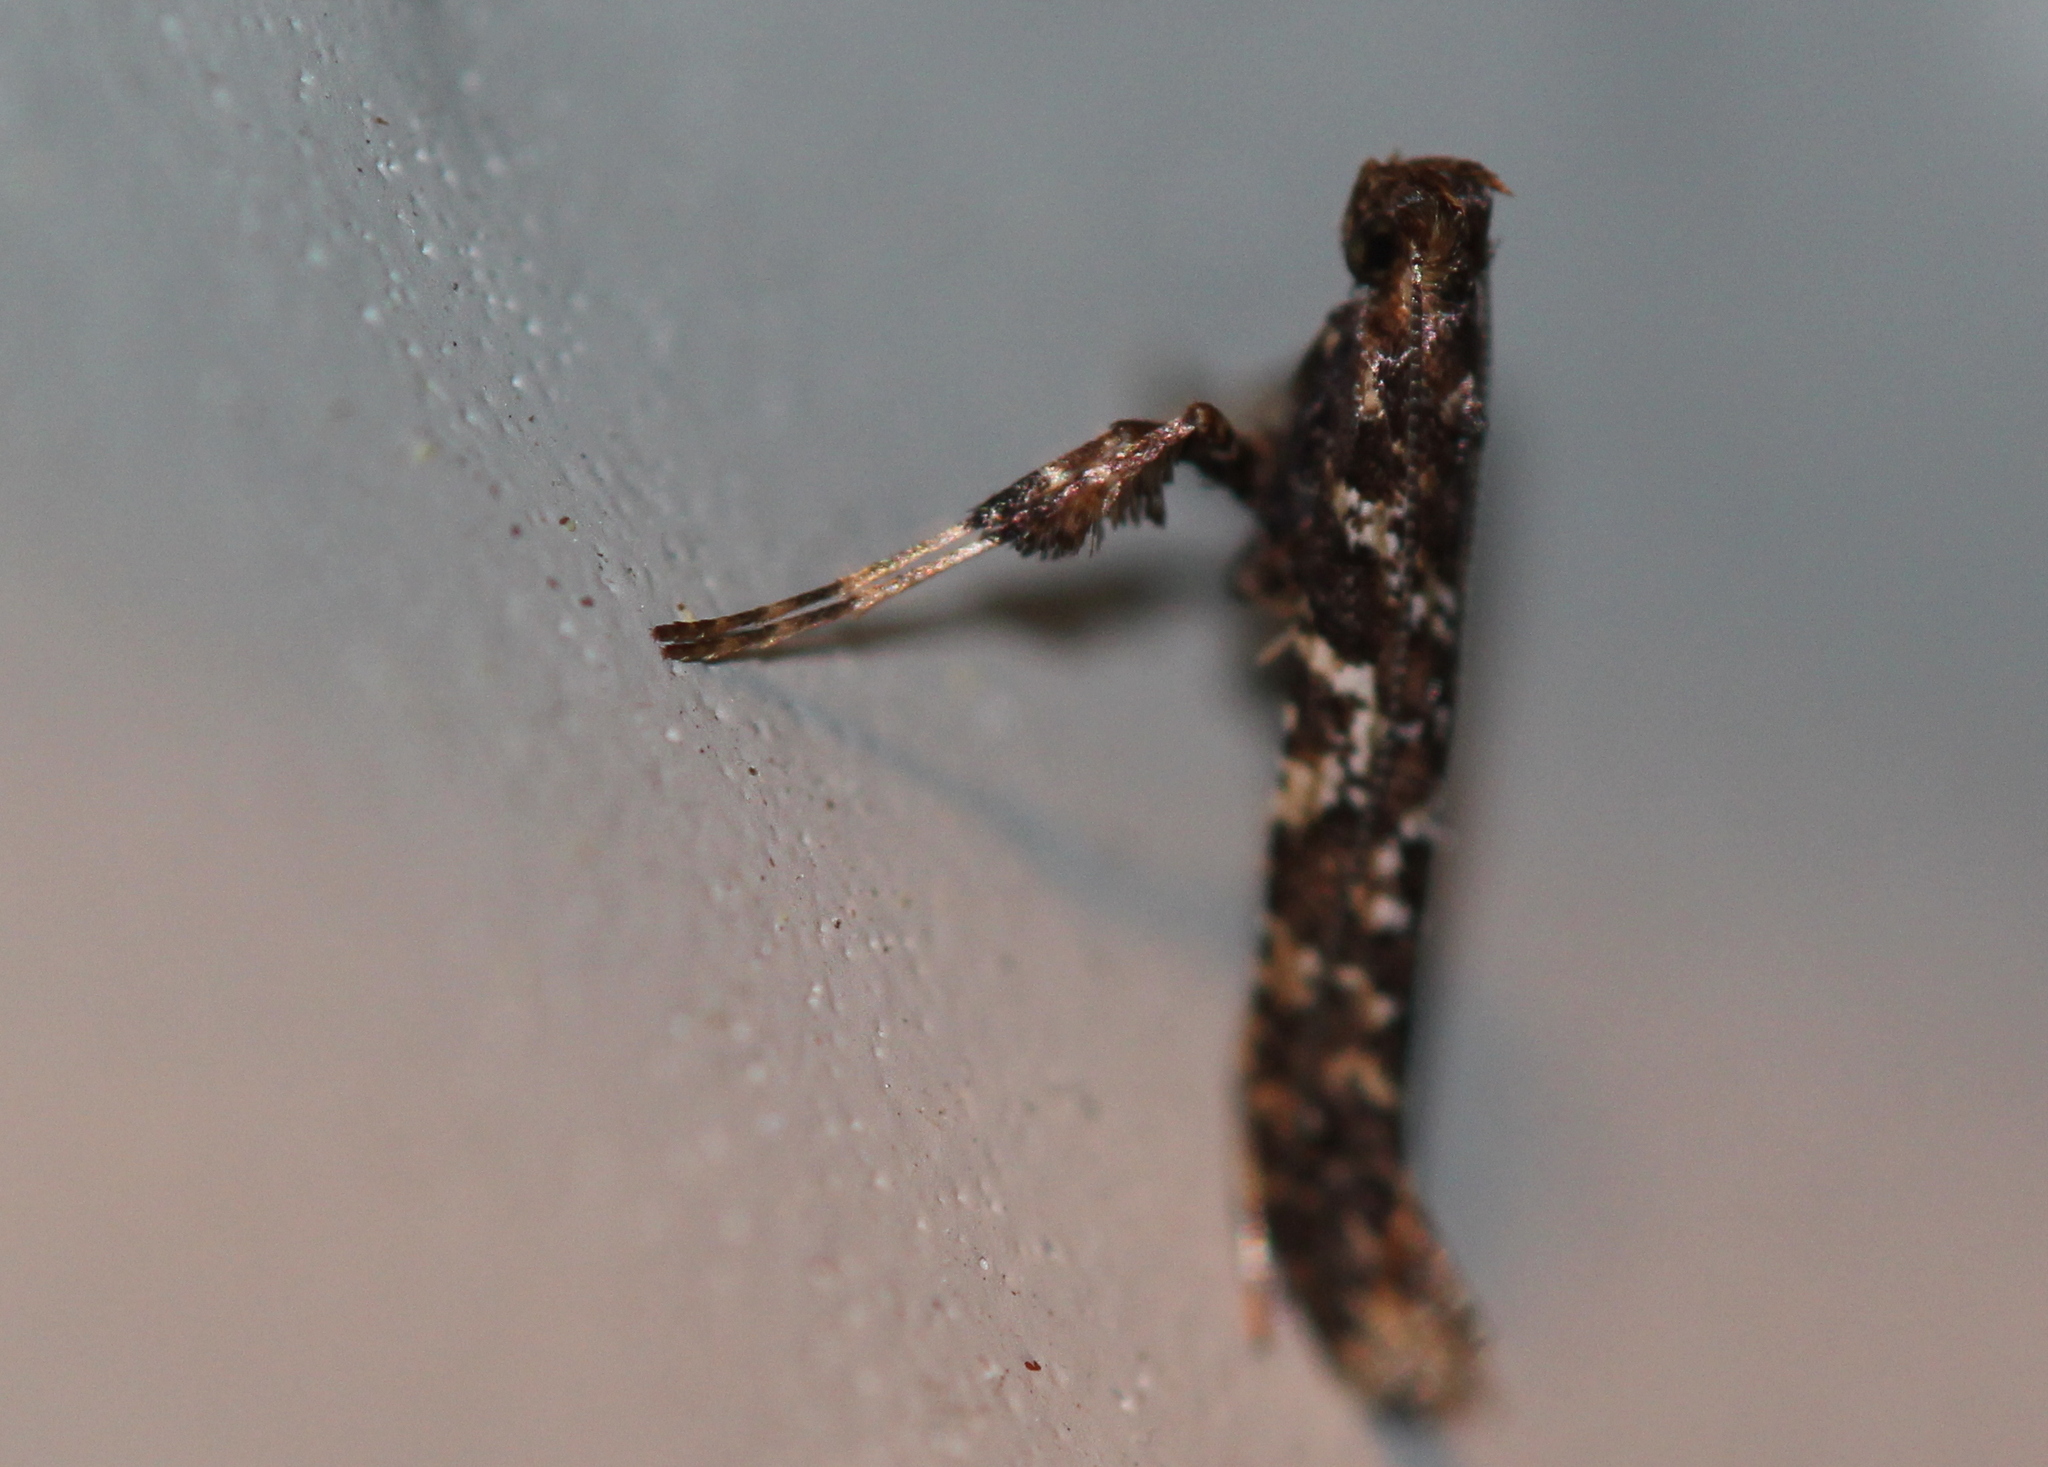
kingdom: Animalia
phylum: Arthropoda
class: Insecta
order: Lepidoptera
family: Gracillariidae
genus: Caloptilia
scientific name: Caloptilia serotinella
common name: Cherry leafroller moth
